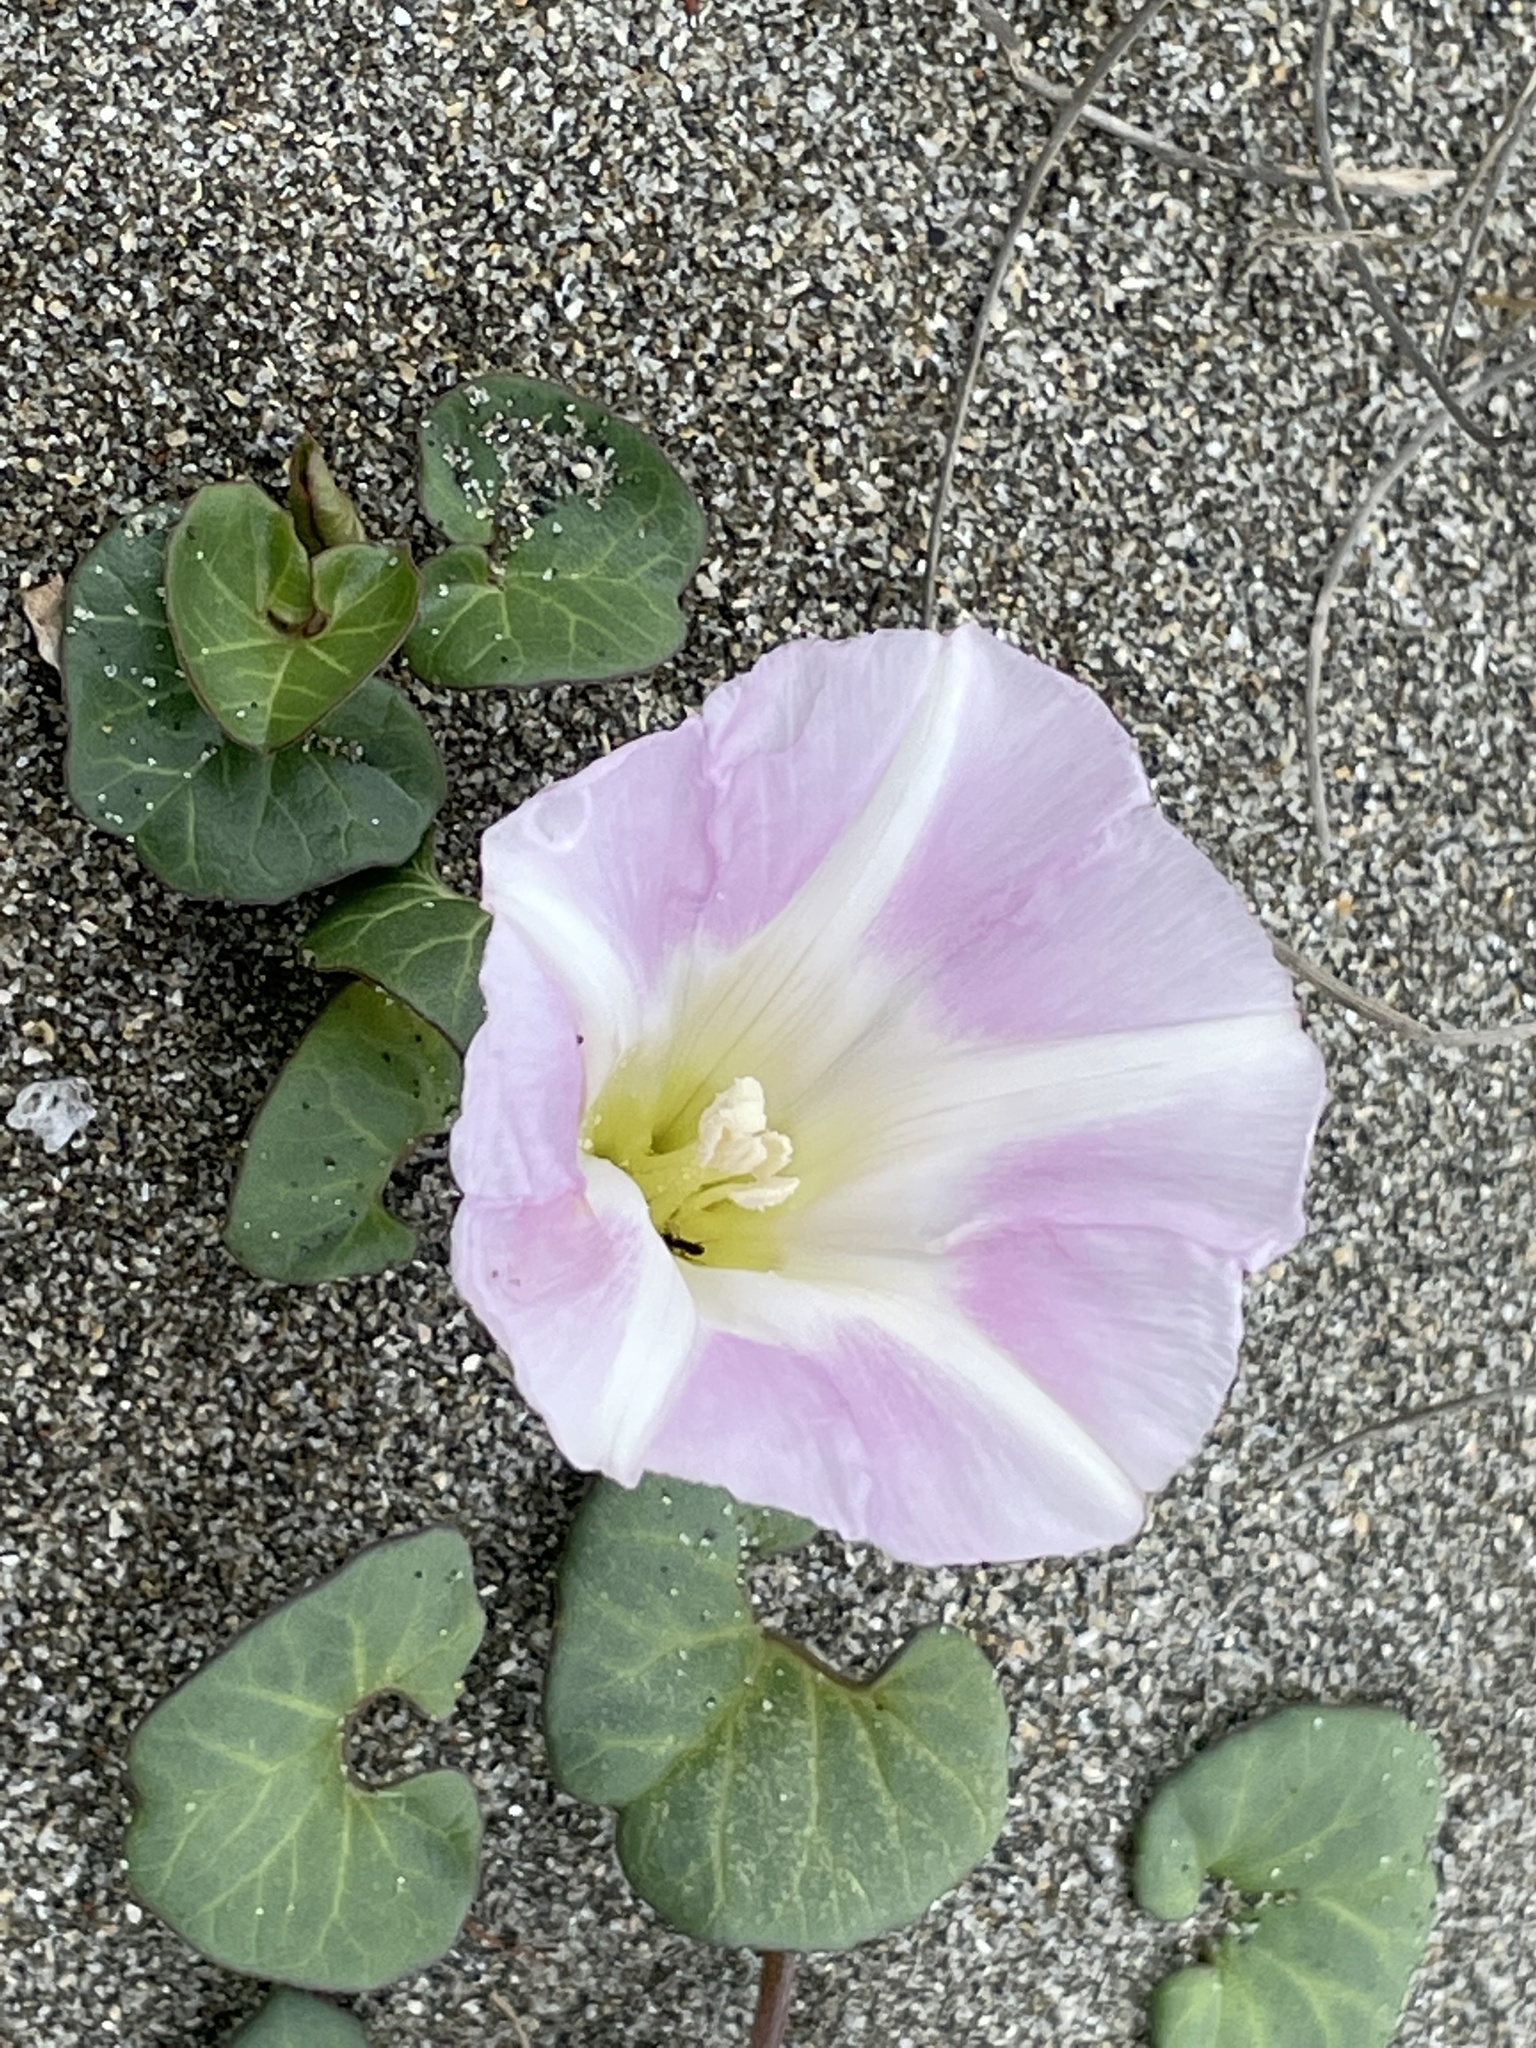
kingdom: Plantae
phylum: Tracheophyta
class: Magnoliopsida
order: Solanales
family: Convolvulaceae
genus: Calystegia
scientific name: Calystegia soldanella
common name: Sea bindweed
